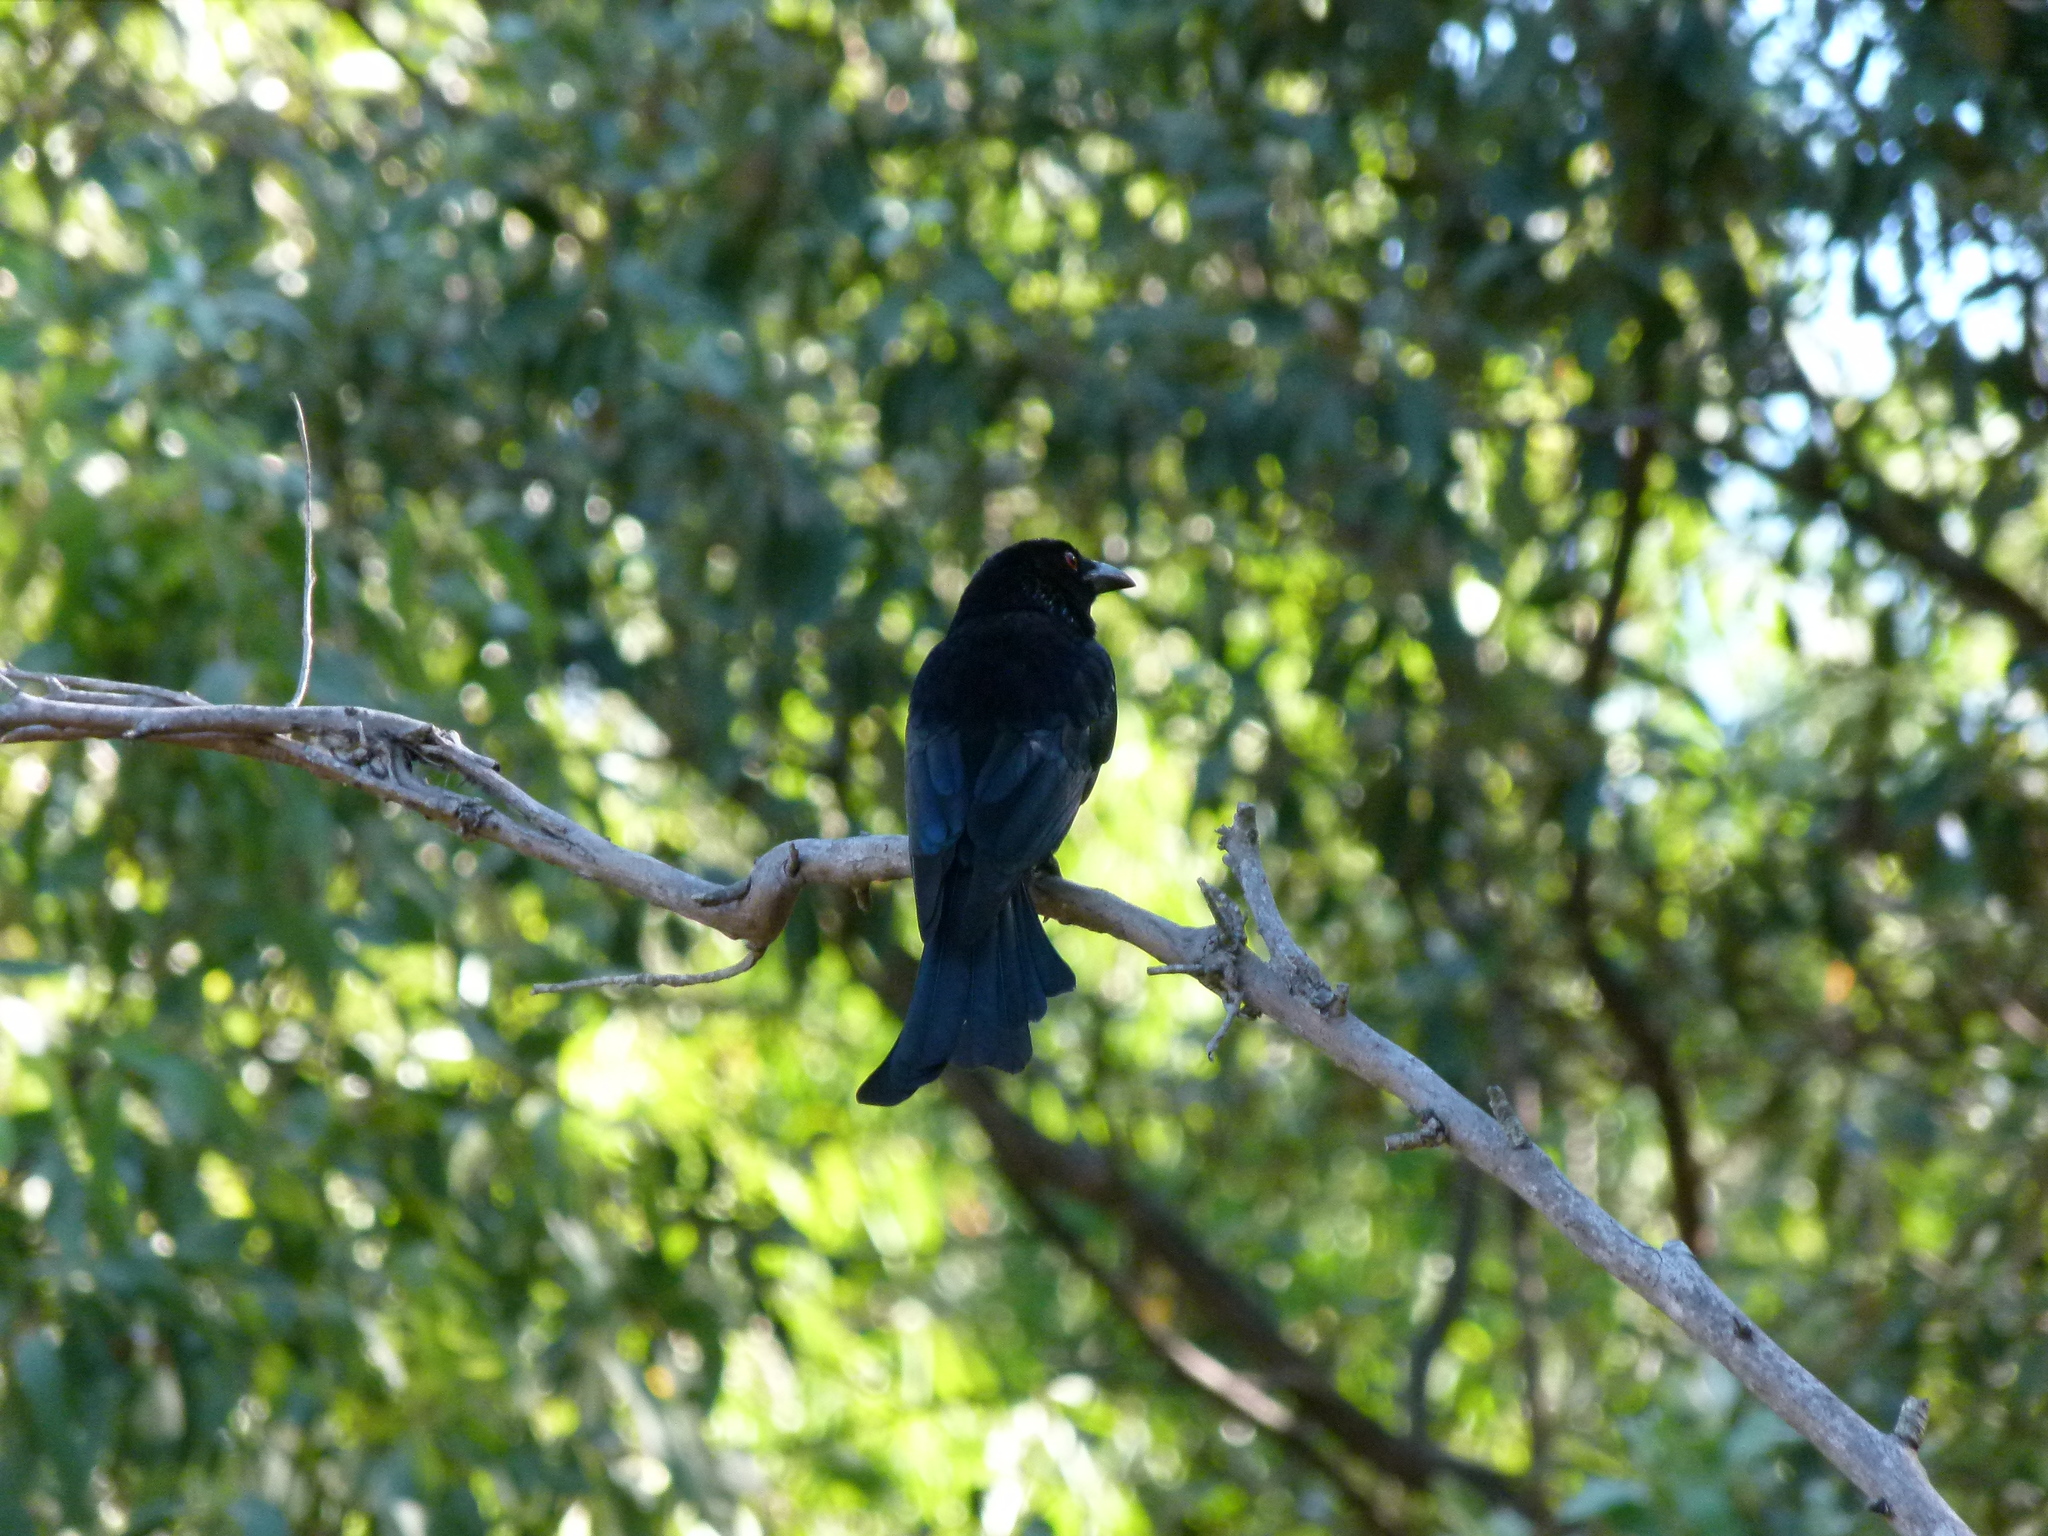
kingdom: Animalia
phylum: Chordata
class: Aves
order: Passeriformes
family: Dicruridae
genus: Dicrurus
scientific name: Dicrurus bracteatus
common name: Spangled drongo
